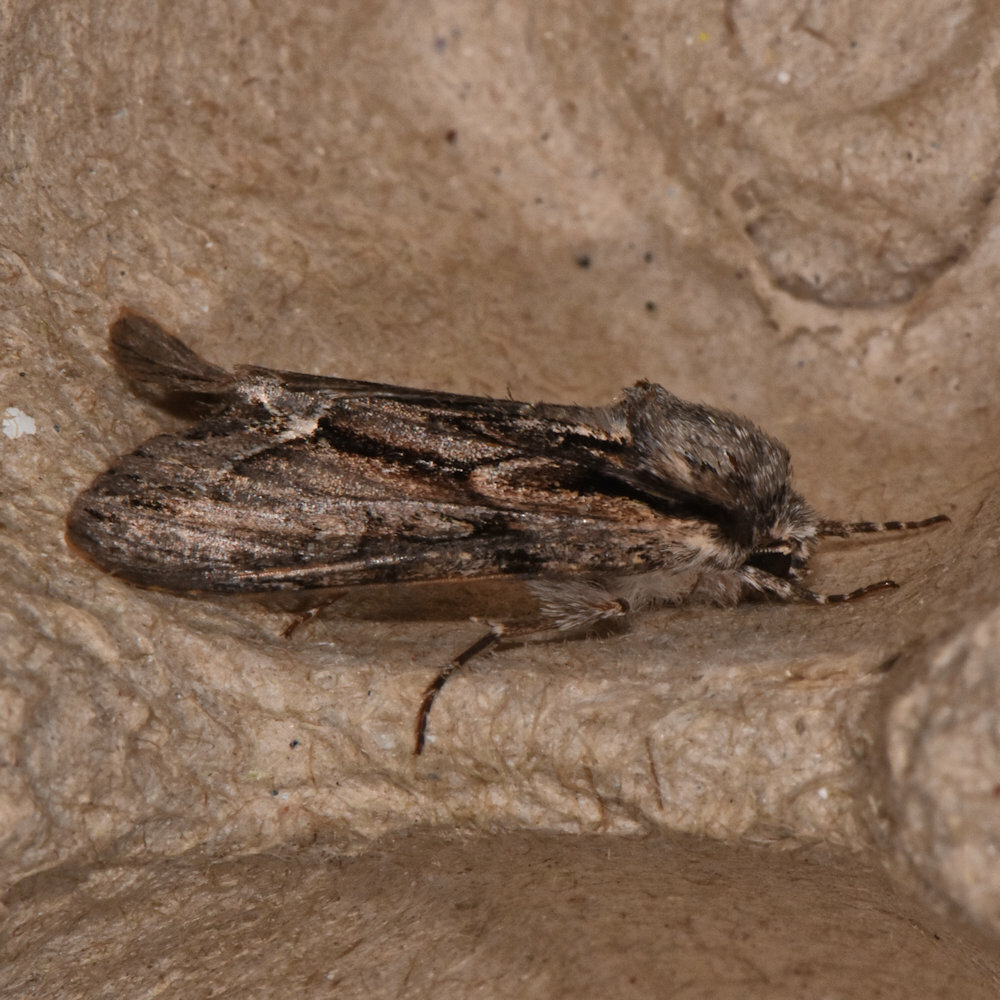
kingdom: Animalia
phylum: Arthropoda
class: Insecta
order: Lepidoptera
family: Noctuidae
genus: Hyppa
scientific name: Hyppa xylinoides
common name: Common hyppa moth
